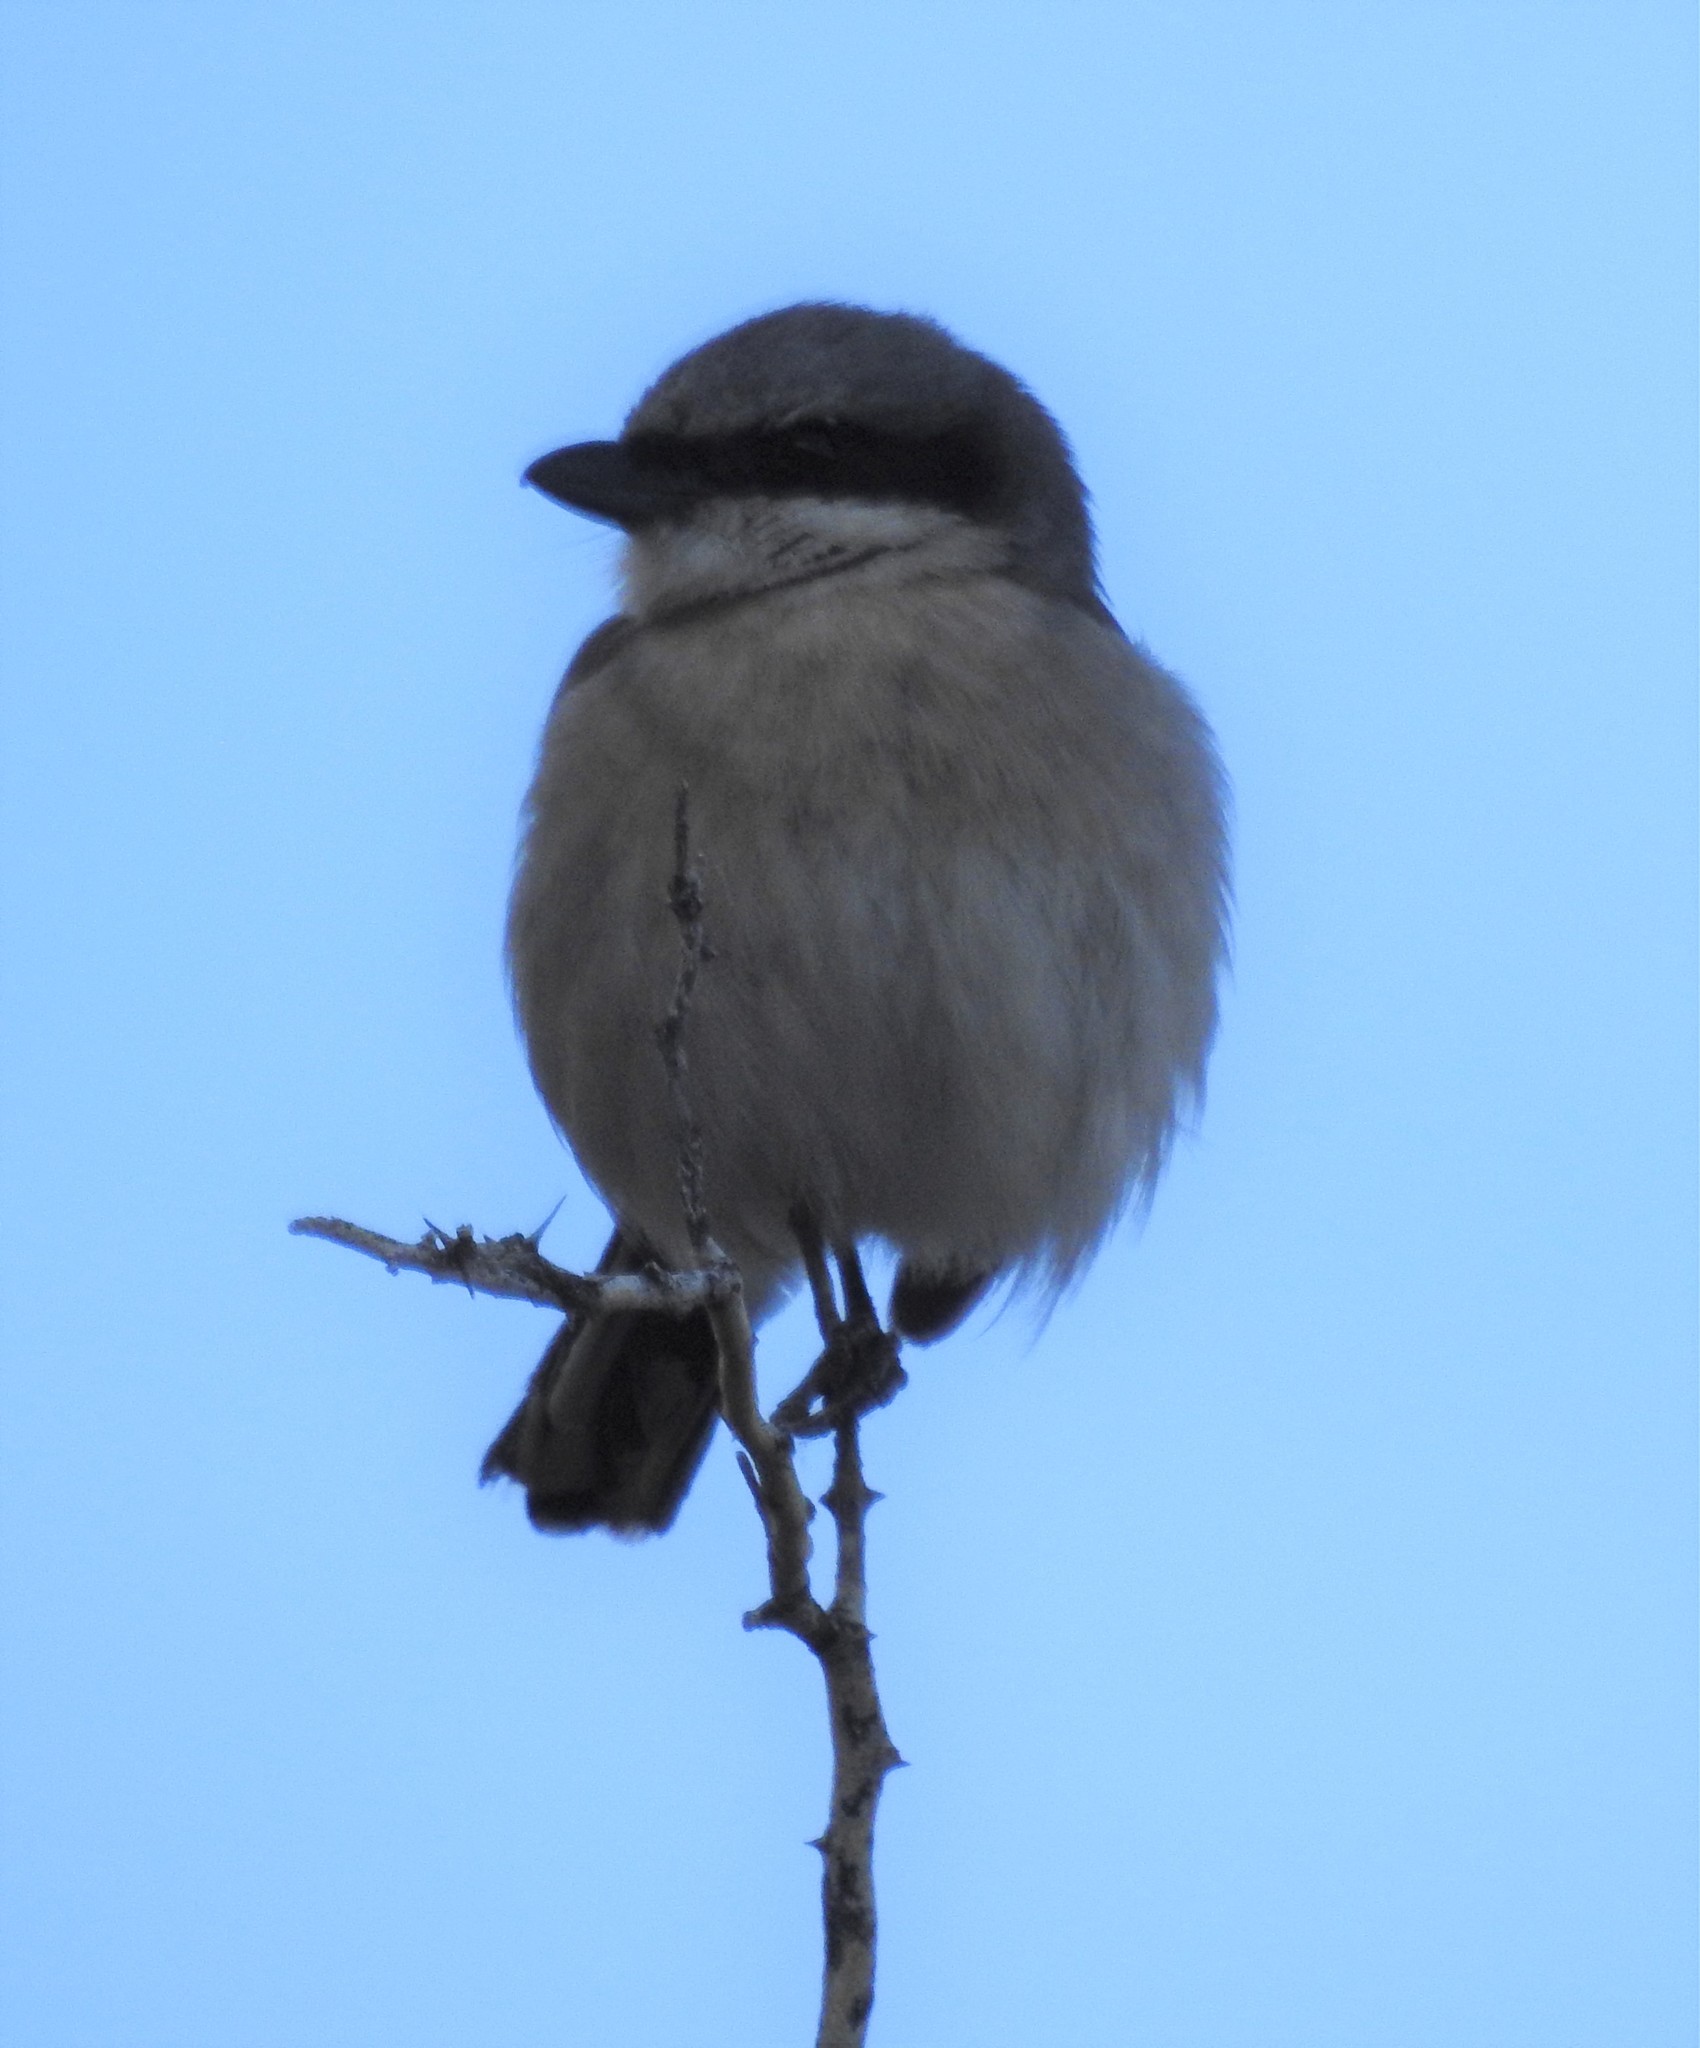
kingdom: Animalia
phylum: Chordata
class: Aves
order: Passeriformes
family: Laniidae
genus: Lanius
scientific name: Lanius ludovicianus
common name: Loggerhead shrike
